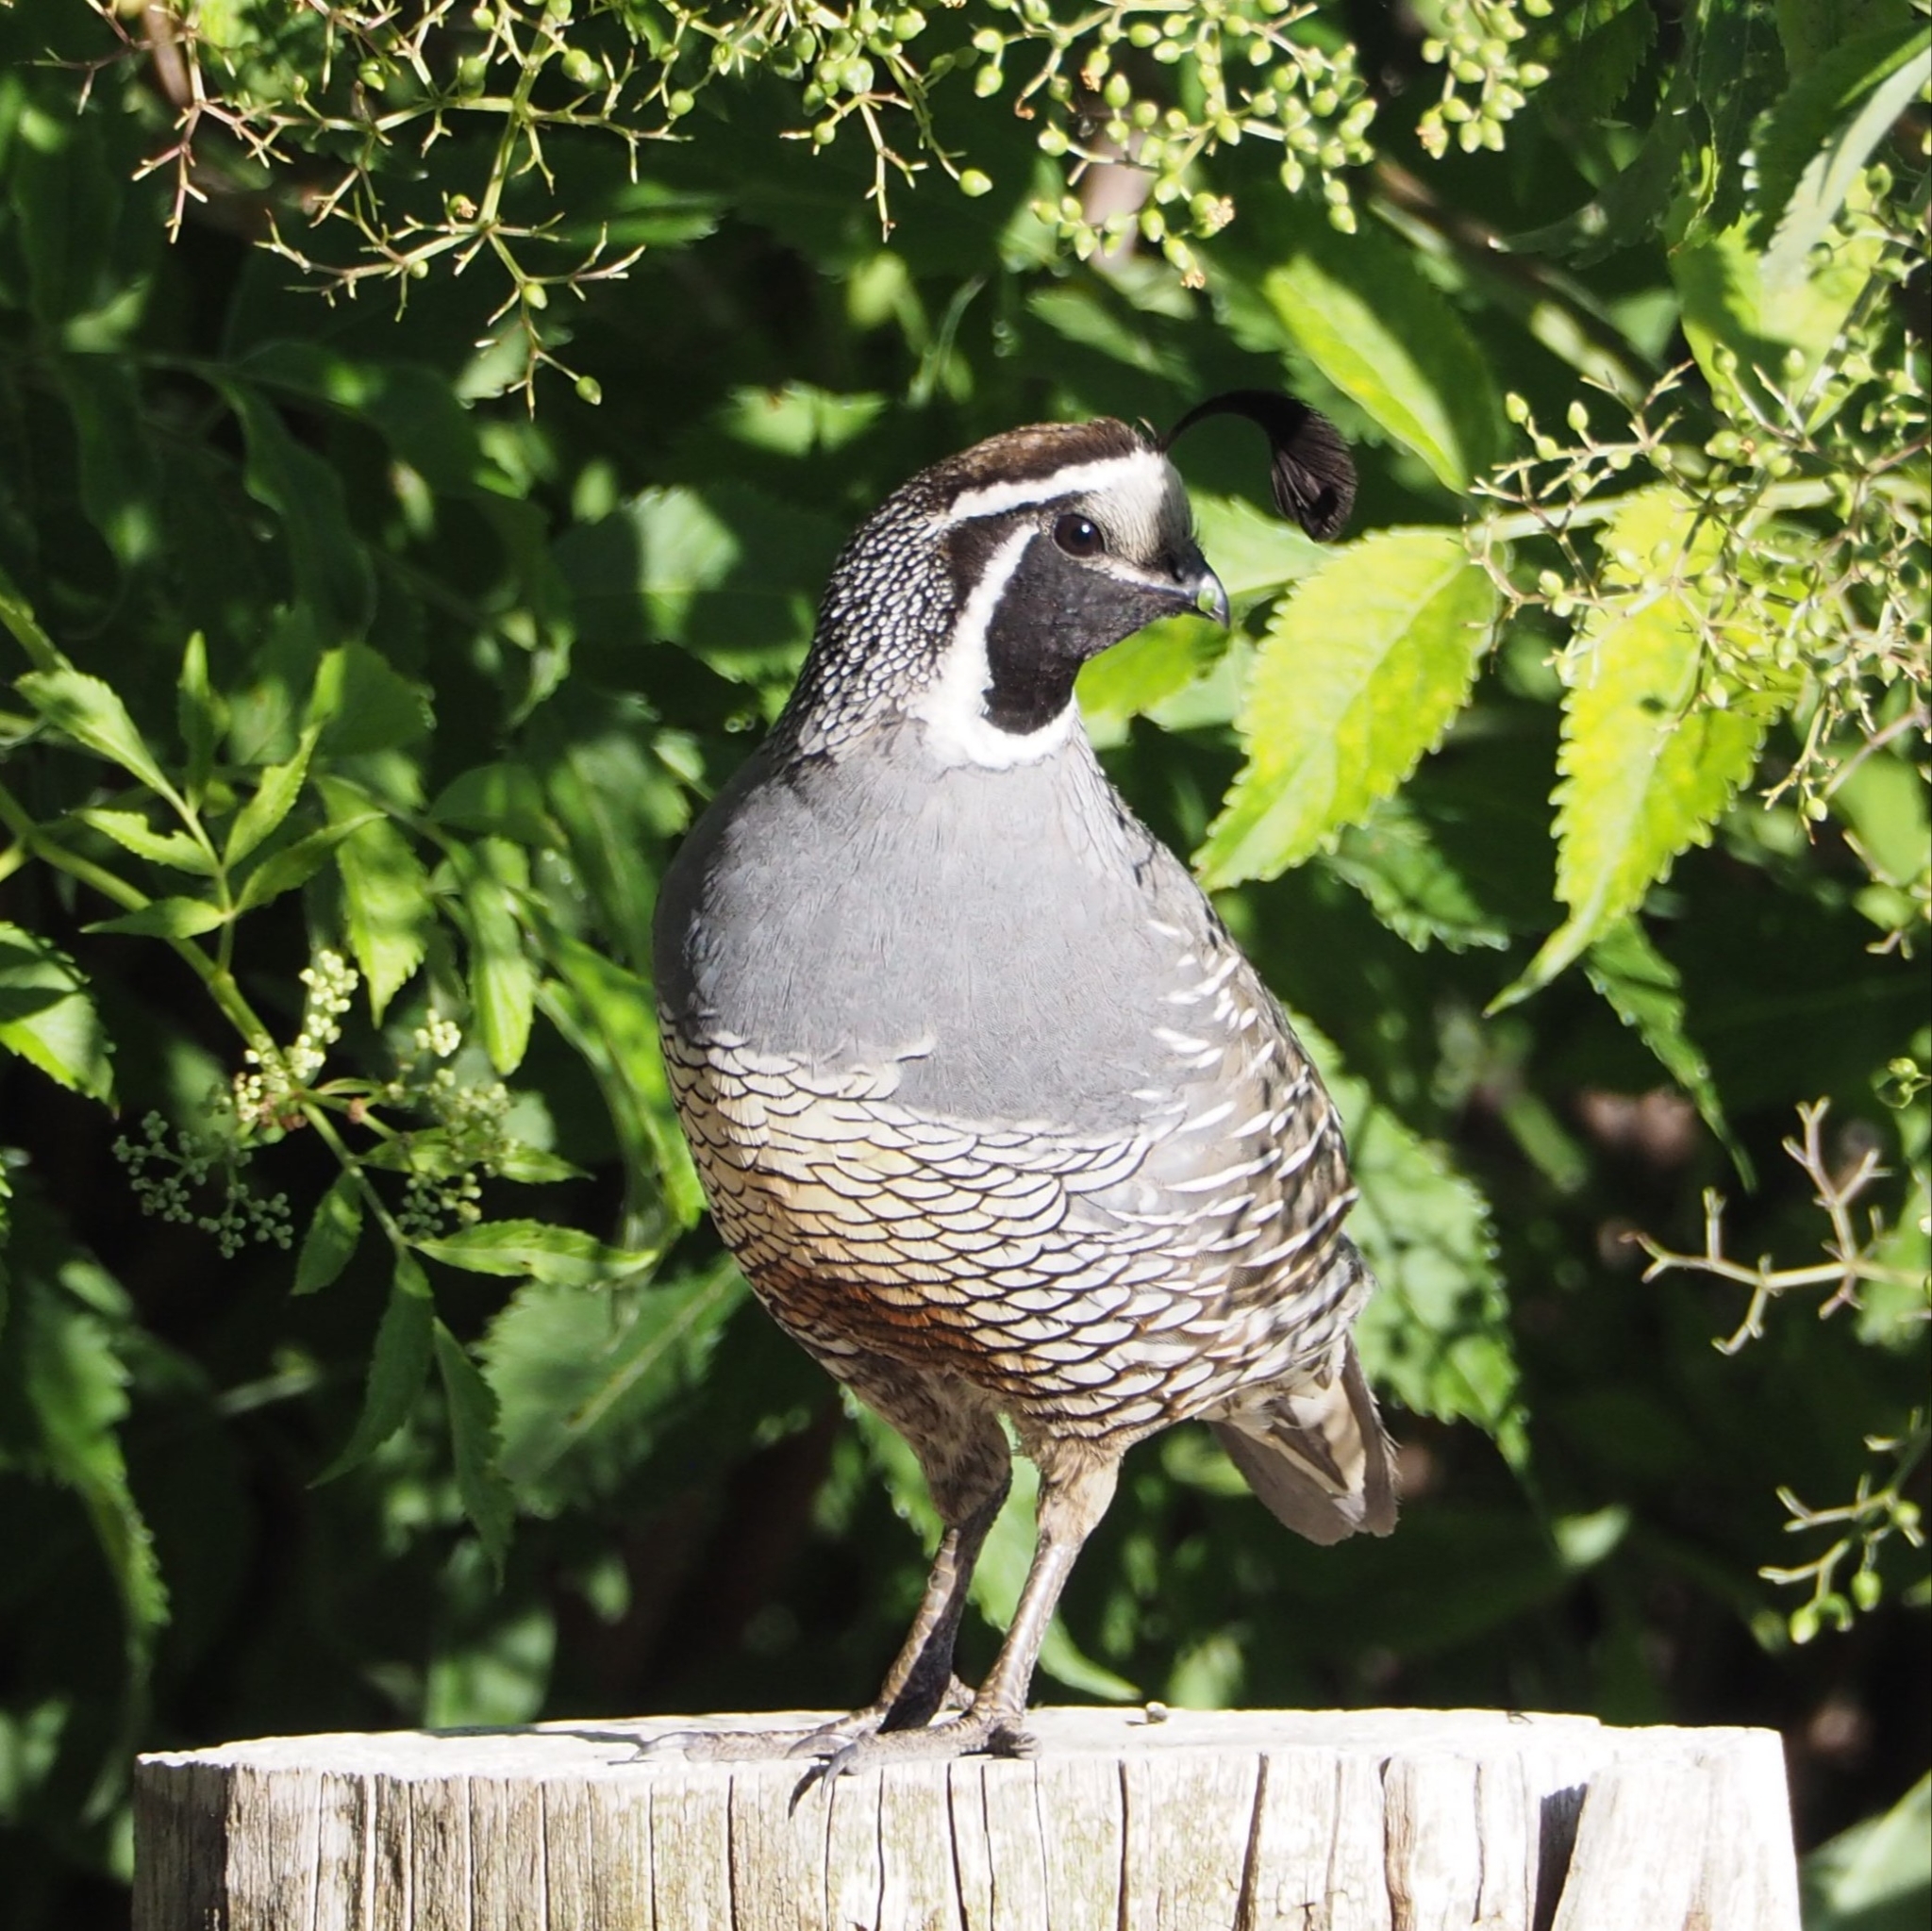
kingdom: Animalia
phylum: Chordata
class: Aves
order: Galliformes
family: Odontophoridae
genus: Callipepla
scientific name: Callipepla californica
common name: California quail
